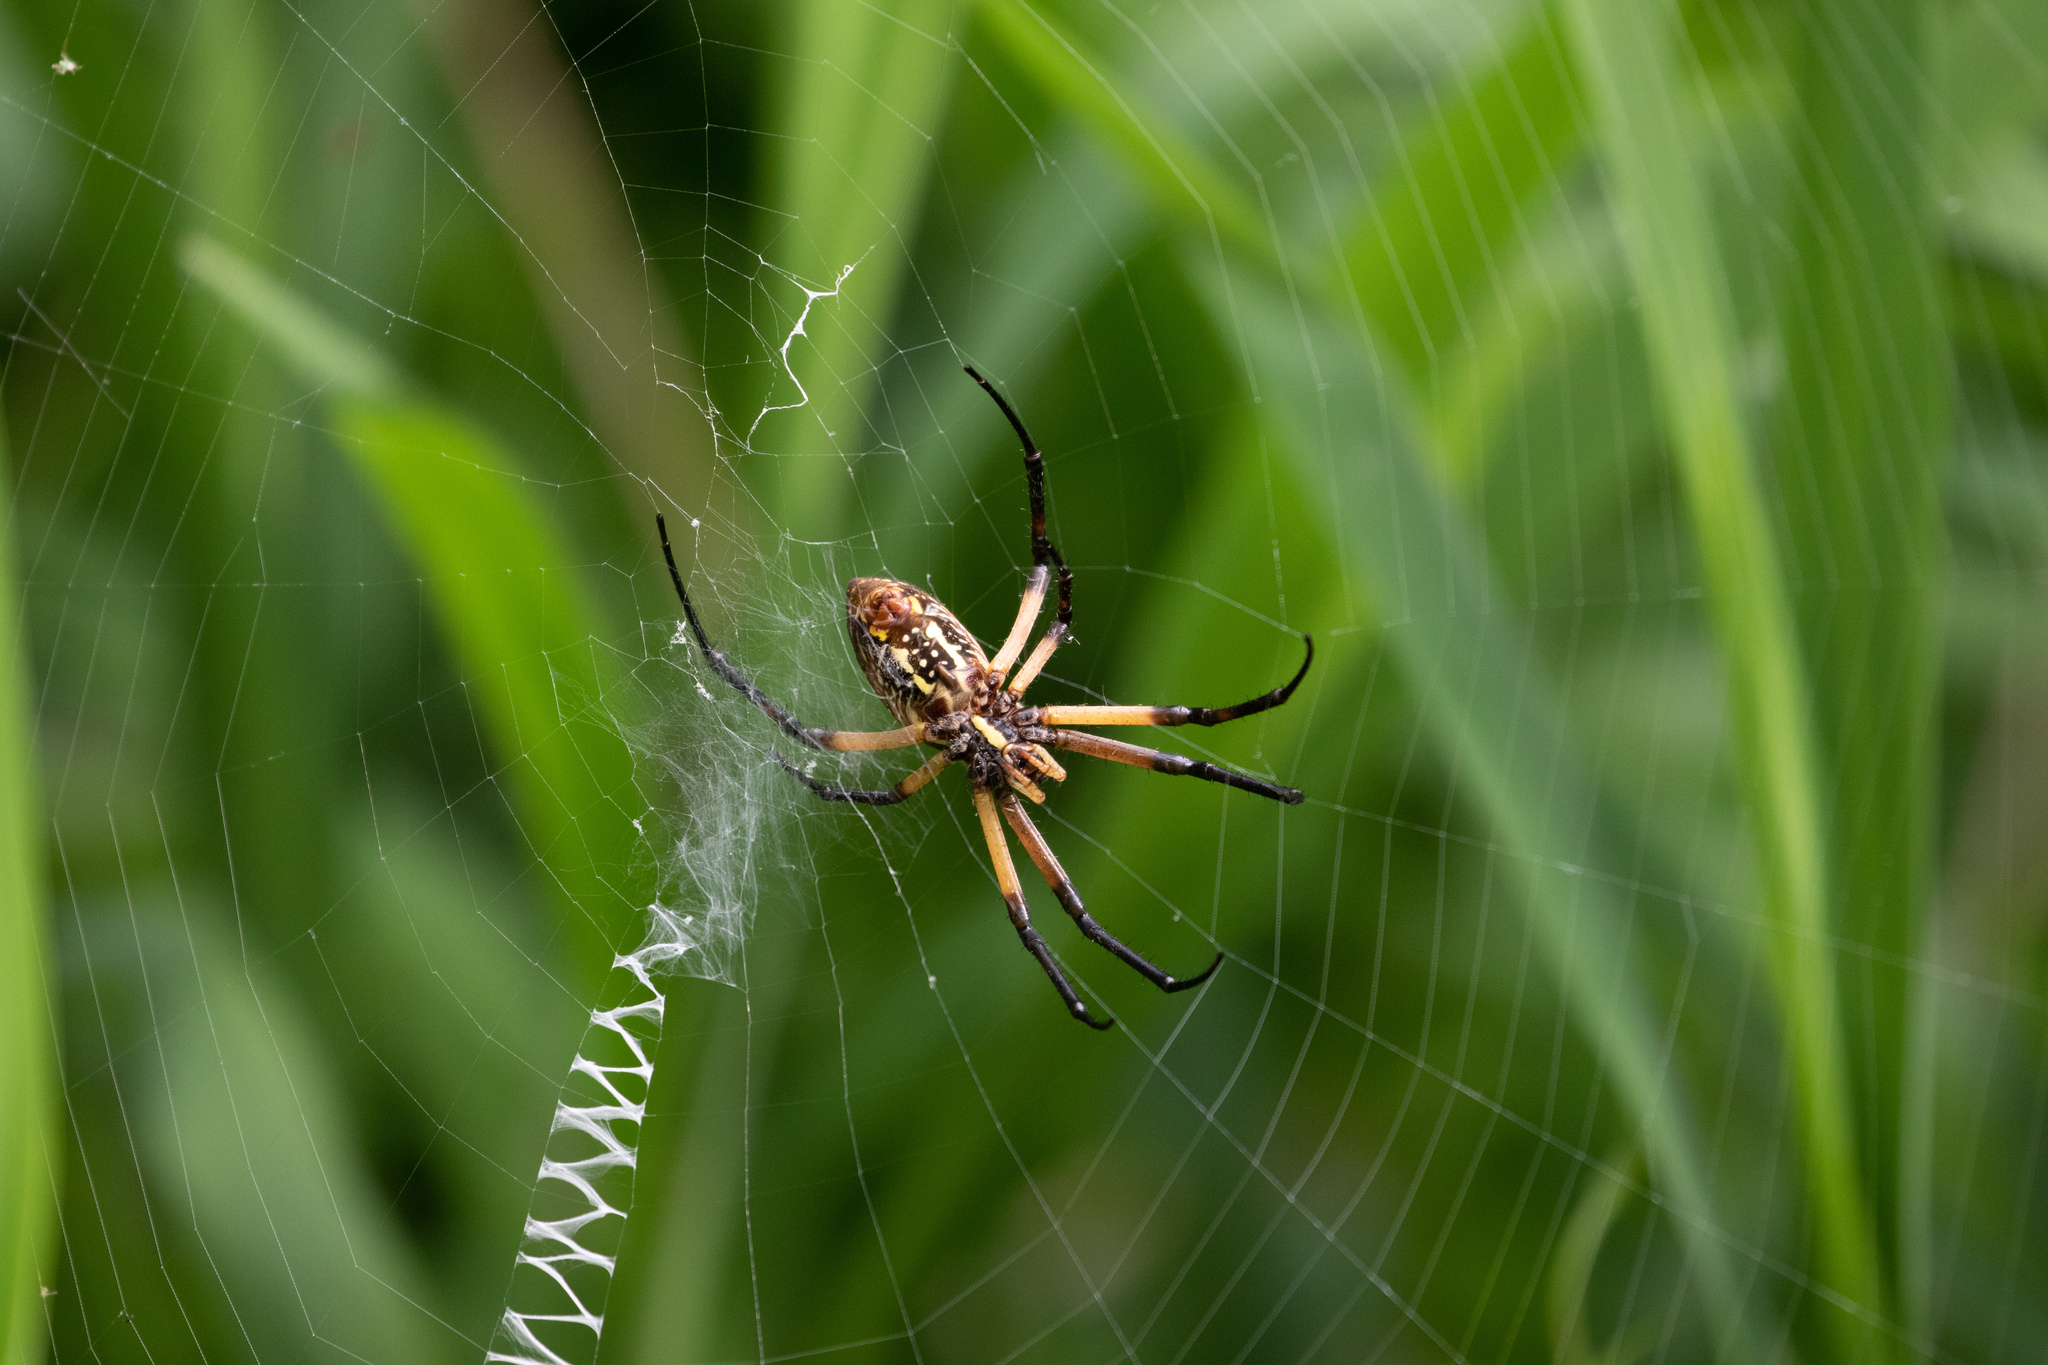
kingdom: Animalia
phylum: Arthropoda
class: Arachnida
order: Araneae
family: Araneidae
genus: Argiope
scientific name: Argiope aurantia
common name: Orb weavers
